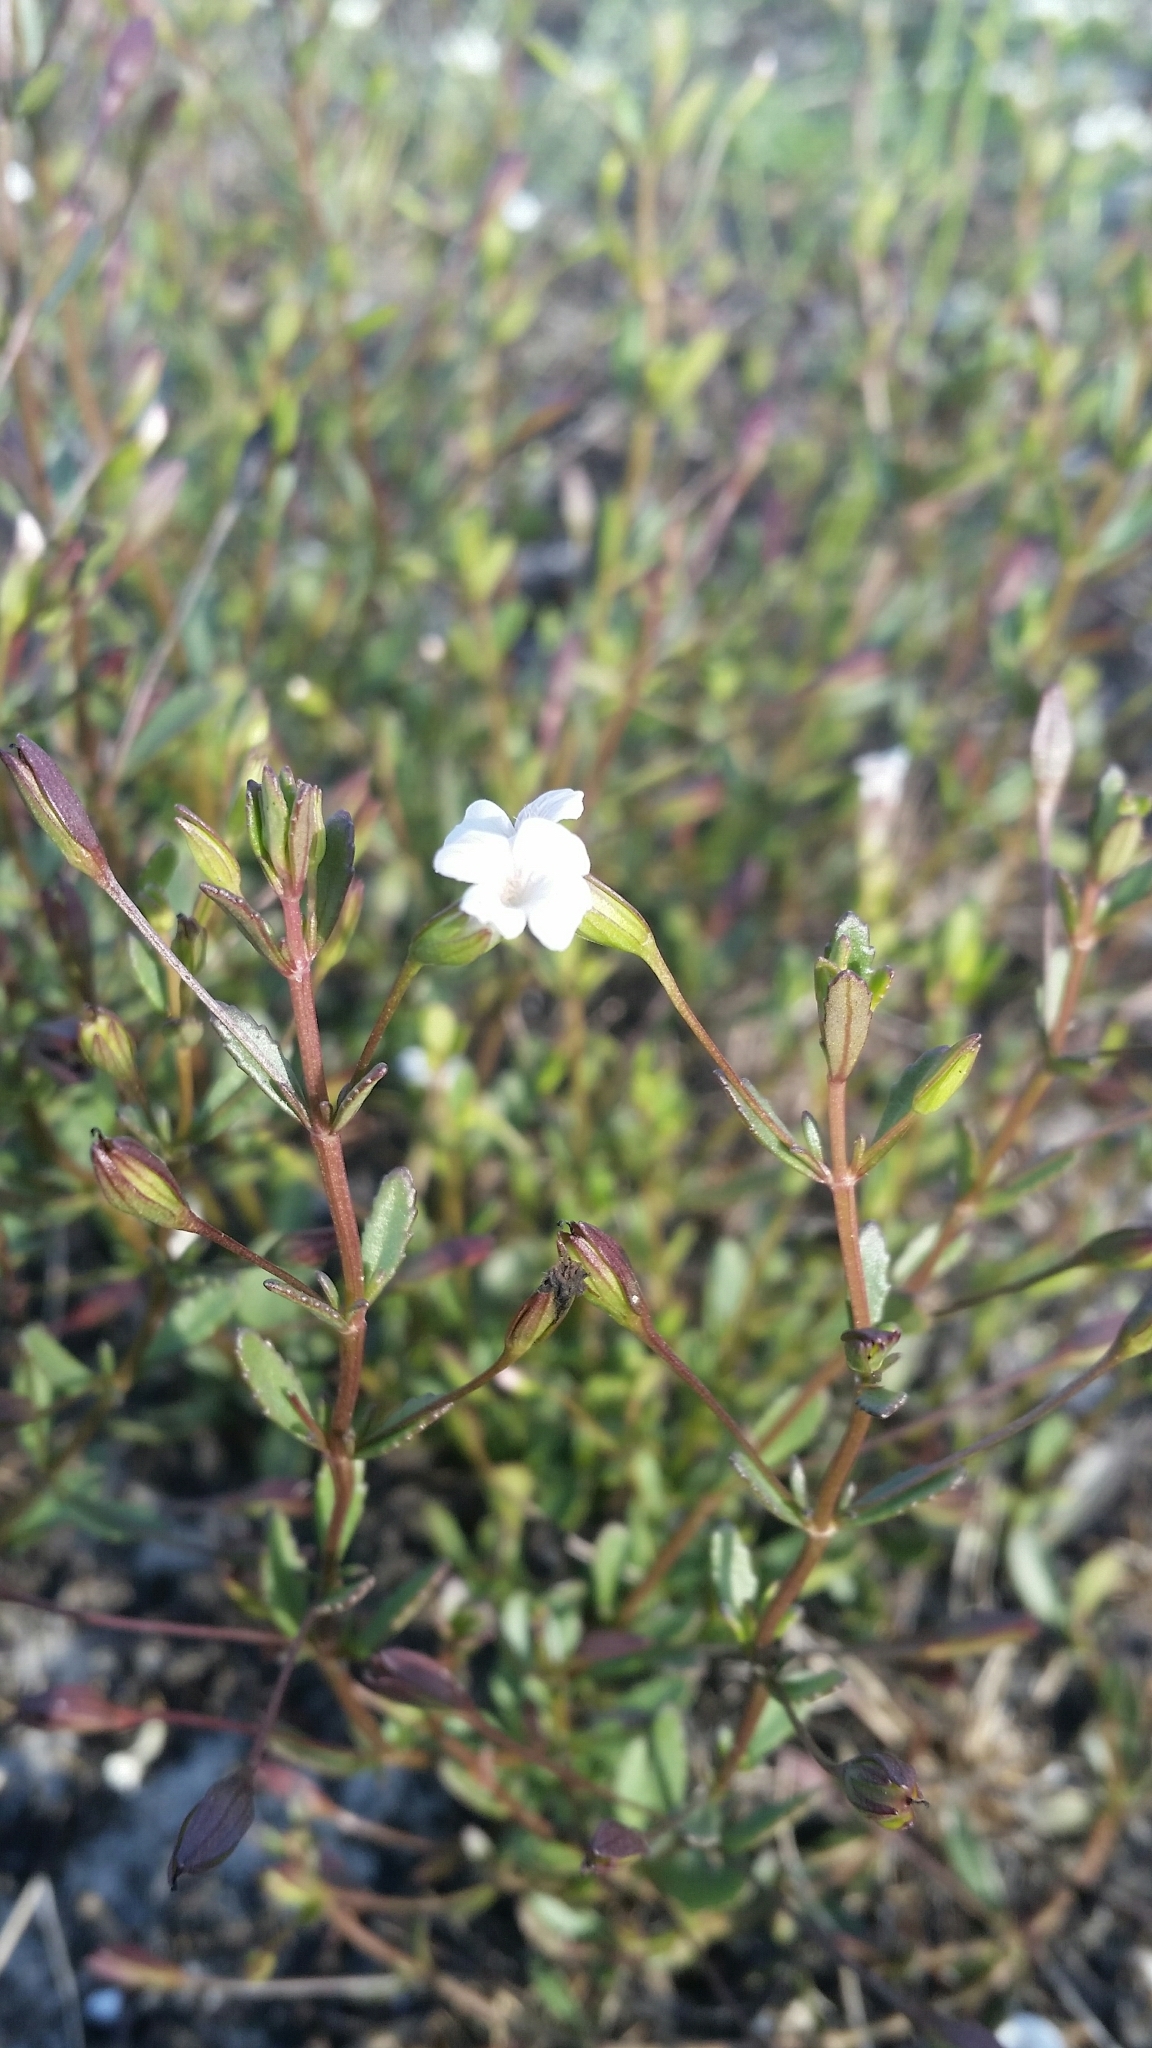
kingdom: Plantae
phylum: Tracheophyta
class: Magnoliopsida
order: Lamiales
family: Plantaginaceae
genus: Mecardonia
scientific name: Mecardonia acuminata
